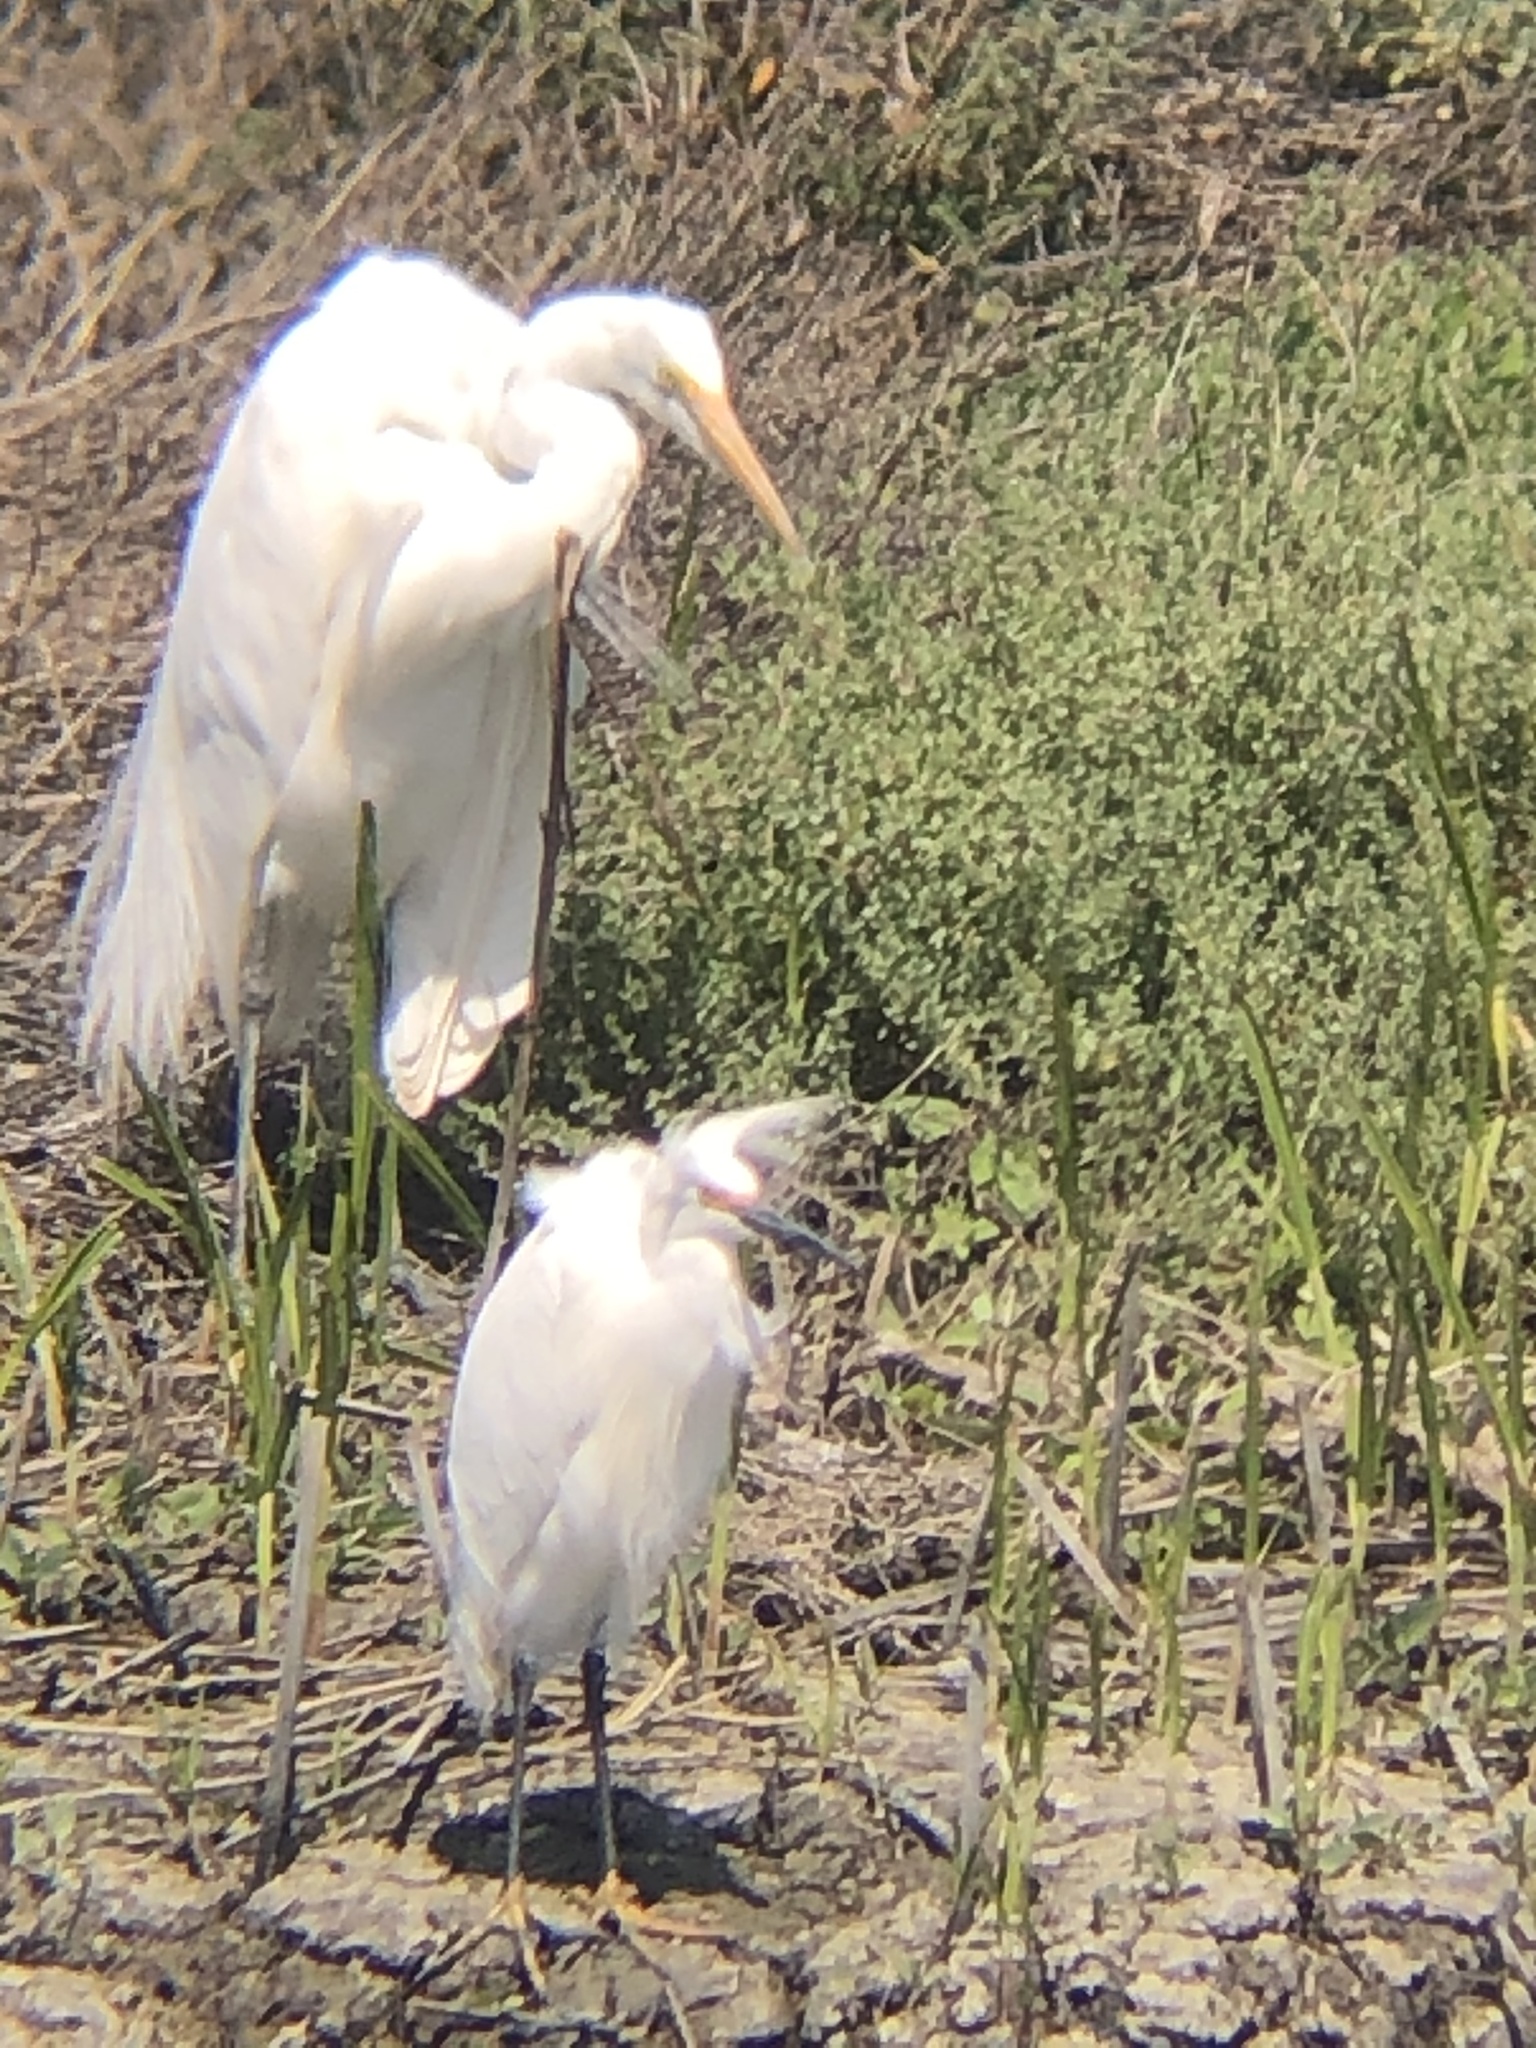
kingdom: Animalia
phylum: Chordata
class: Aves
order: Pelecaniformes
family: Ardeidae
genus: Ardea
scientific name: Ardea alba
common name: Great egret
